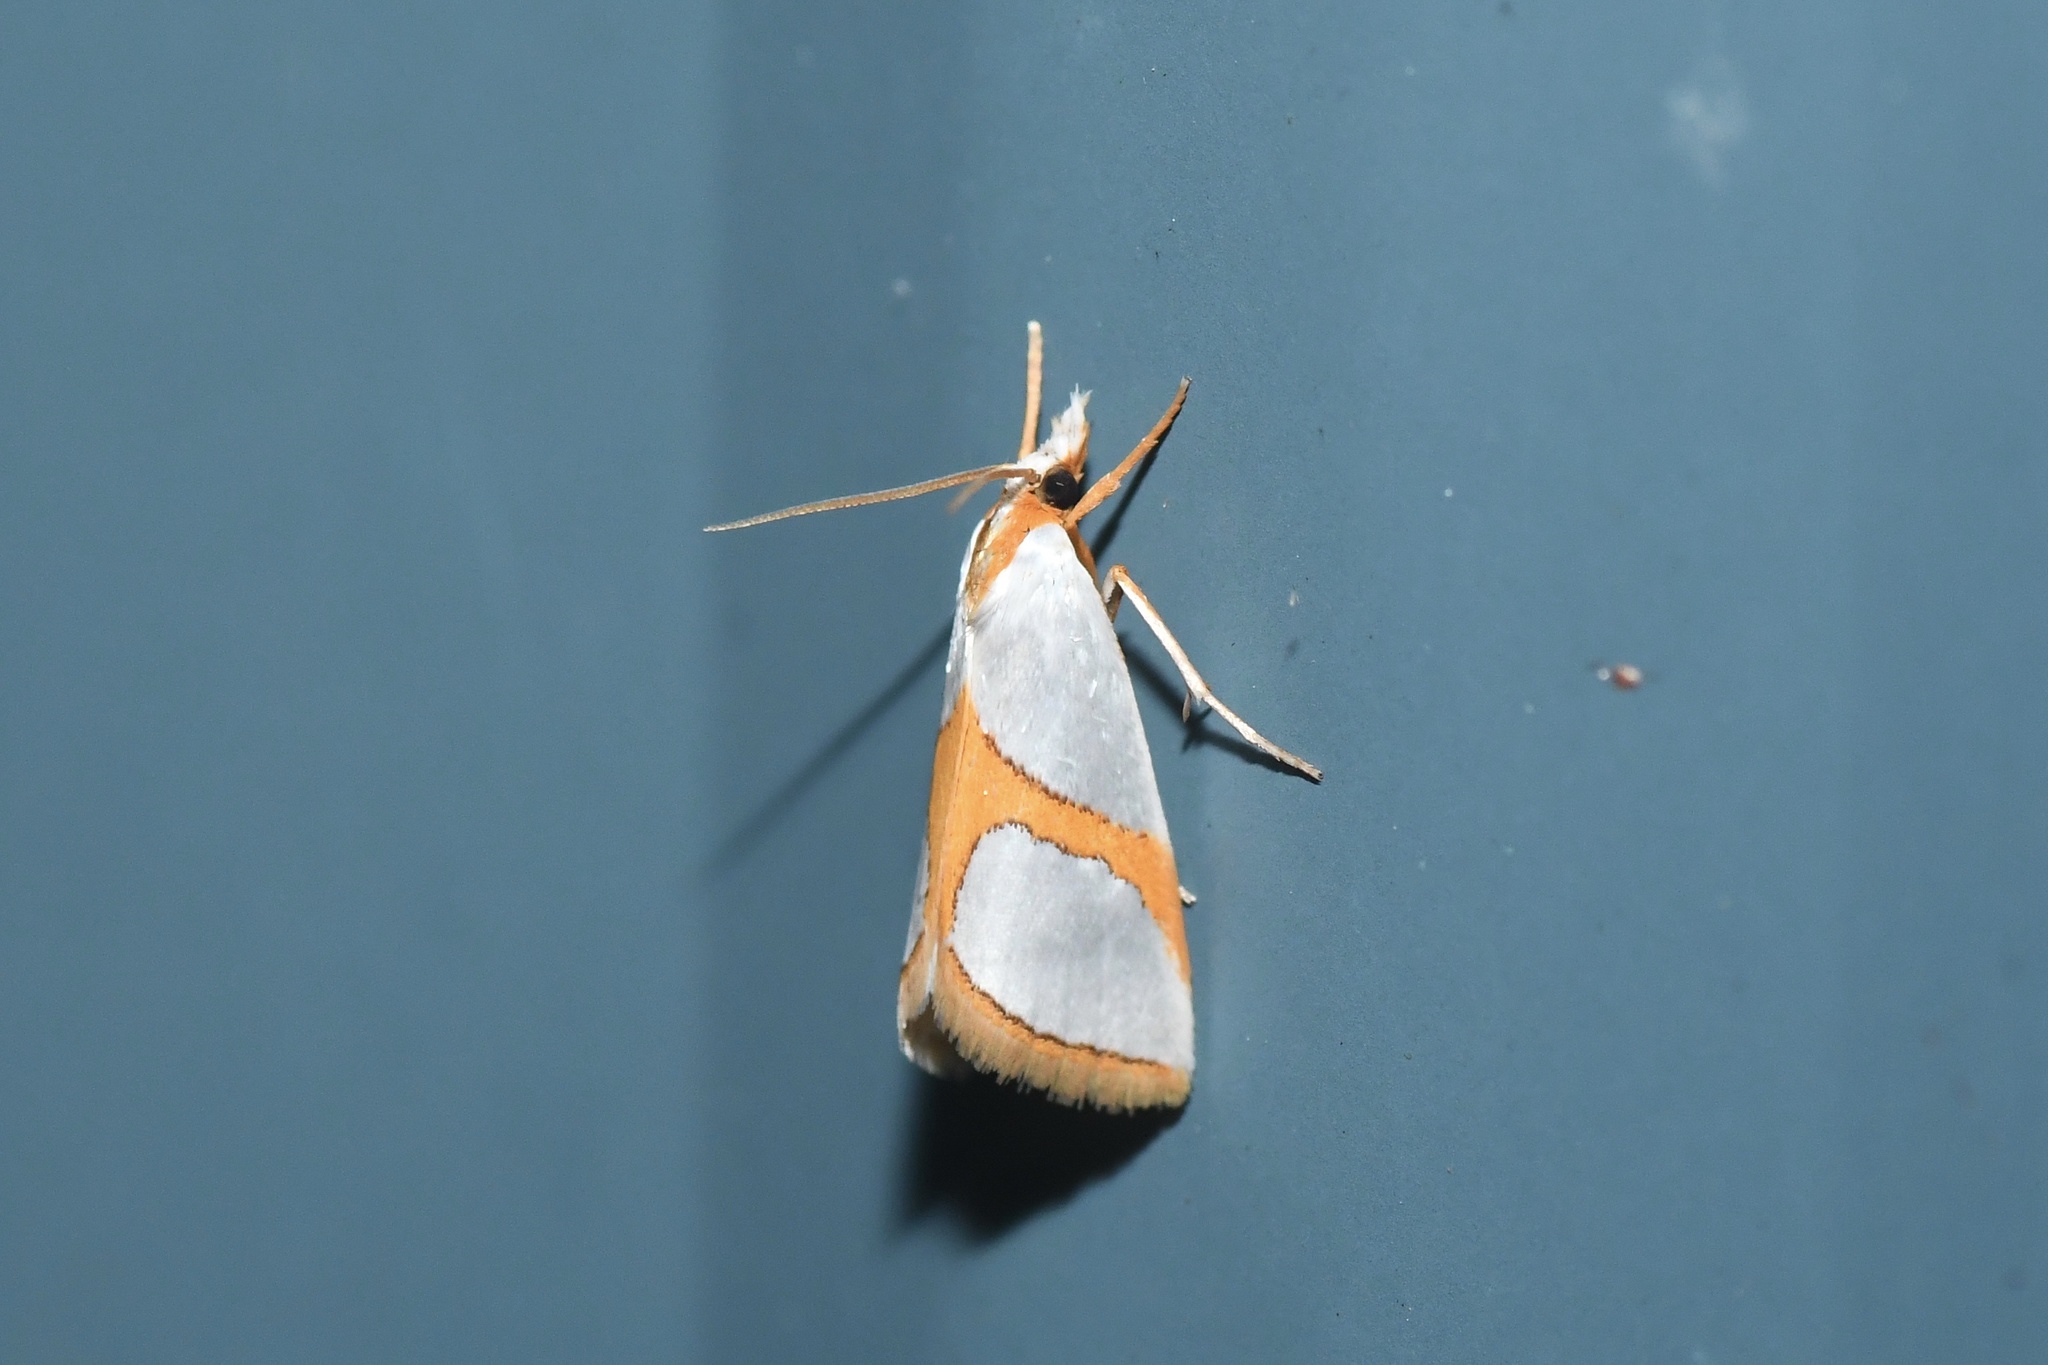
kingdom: Animalia
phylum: Arthropoda
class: Insecta
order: Lepidoptera
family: Crambidae
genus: Argyria
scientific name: Argyria auratella
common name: Curve-lined argyria moth
